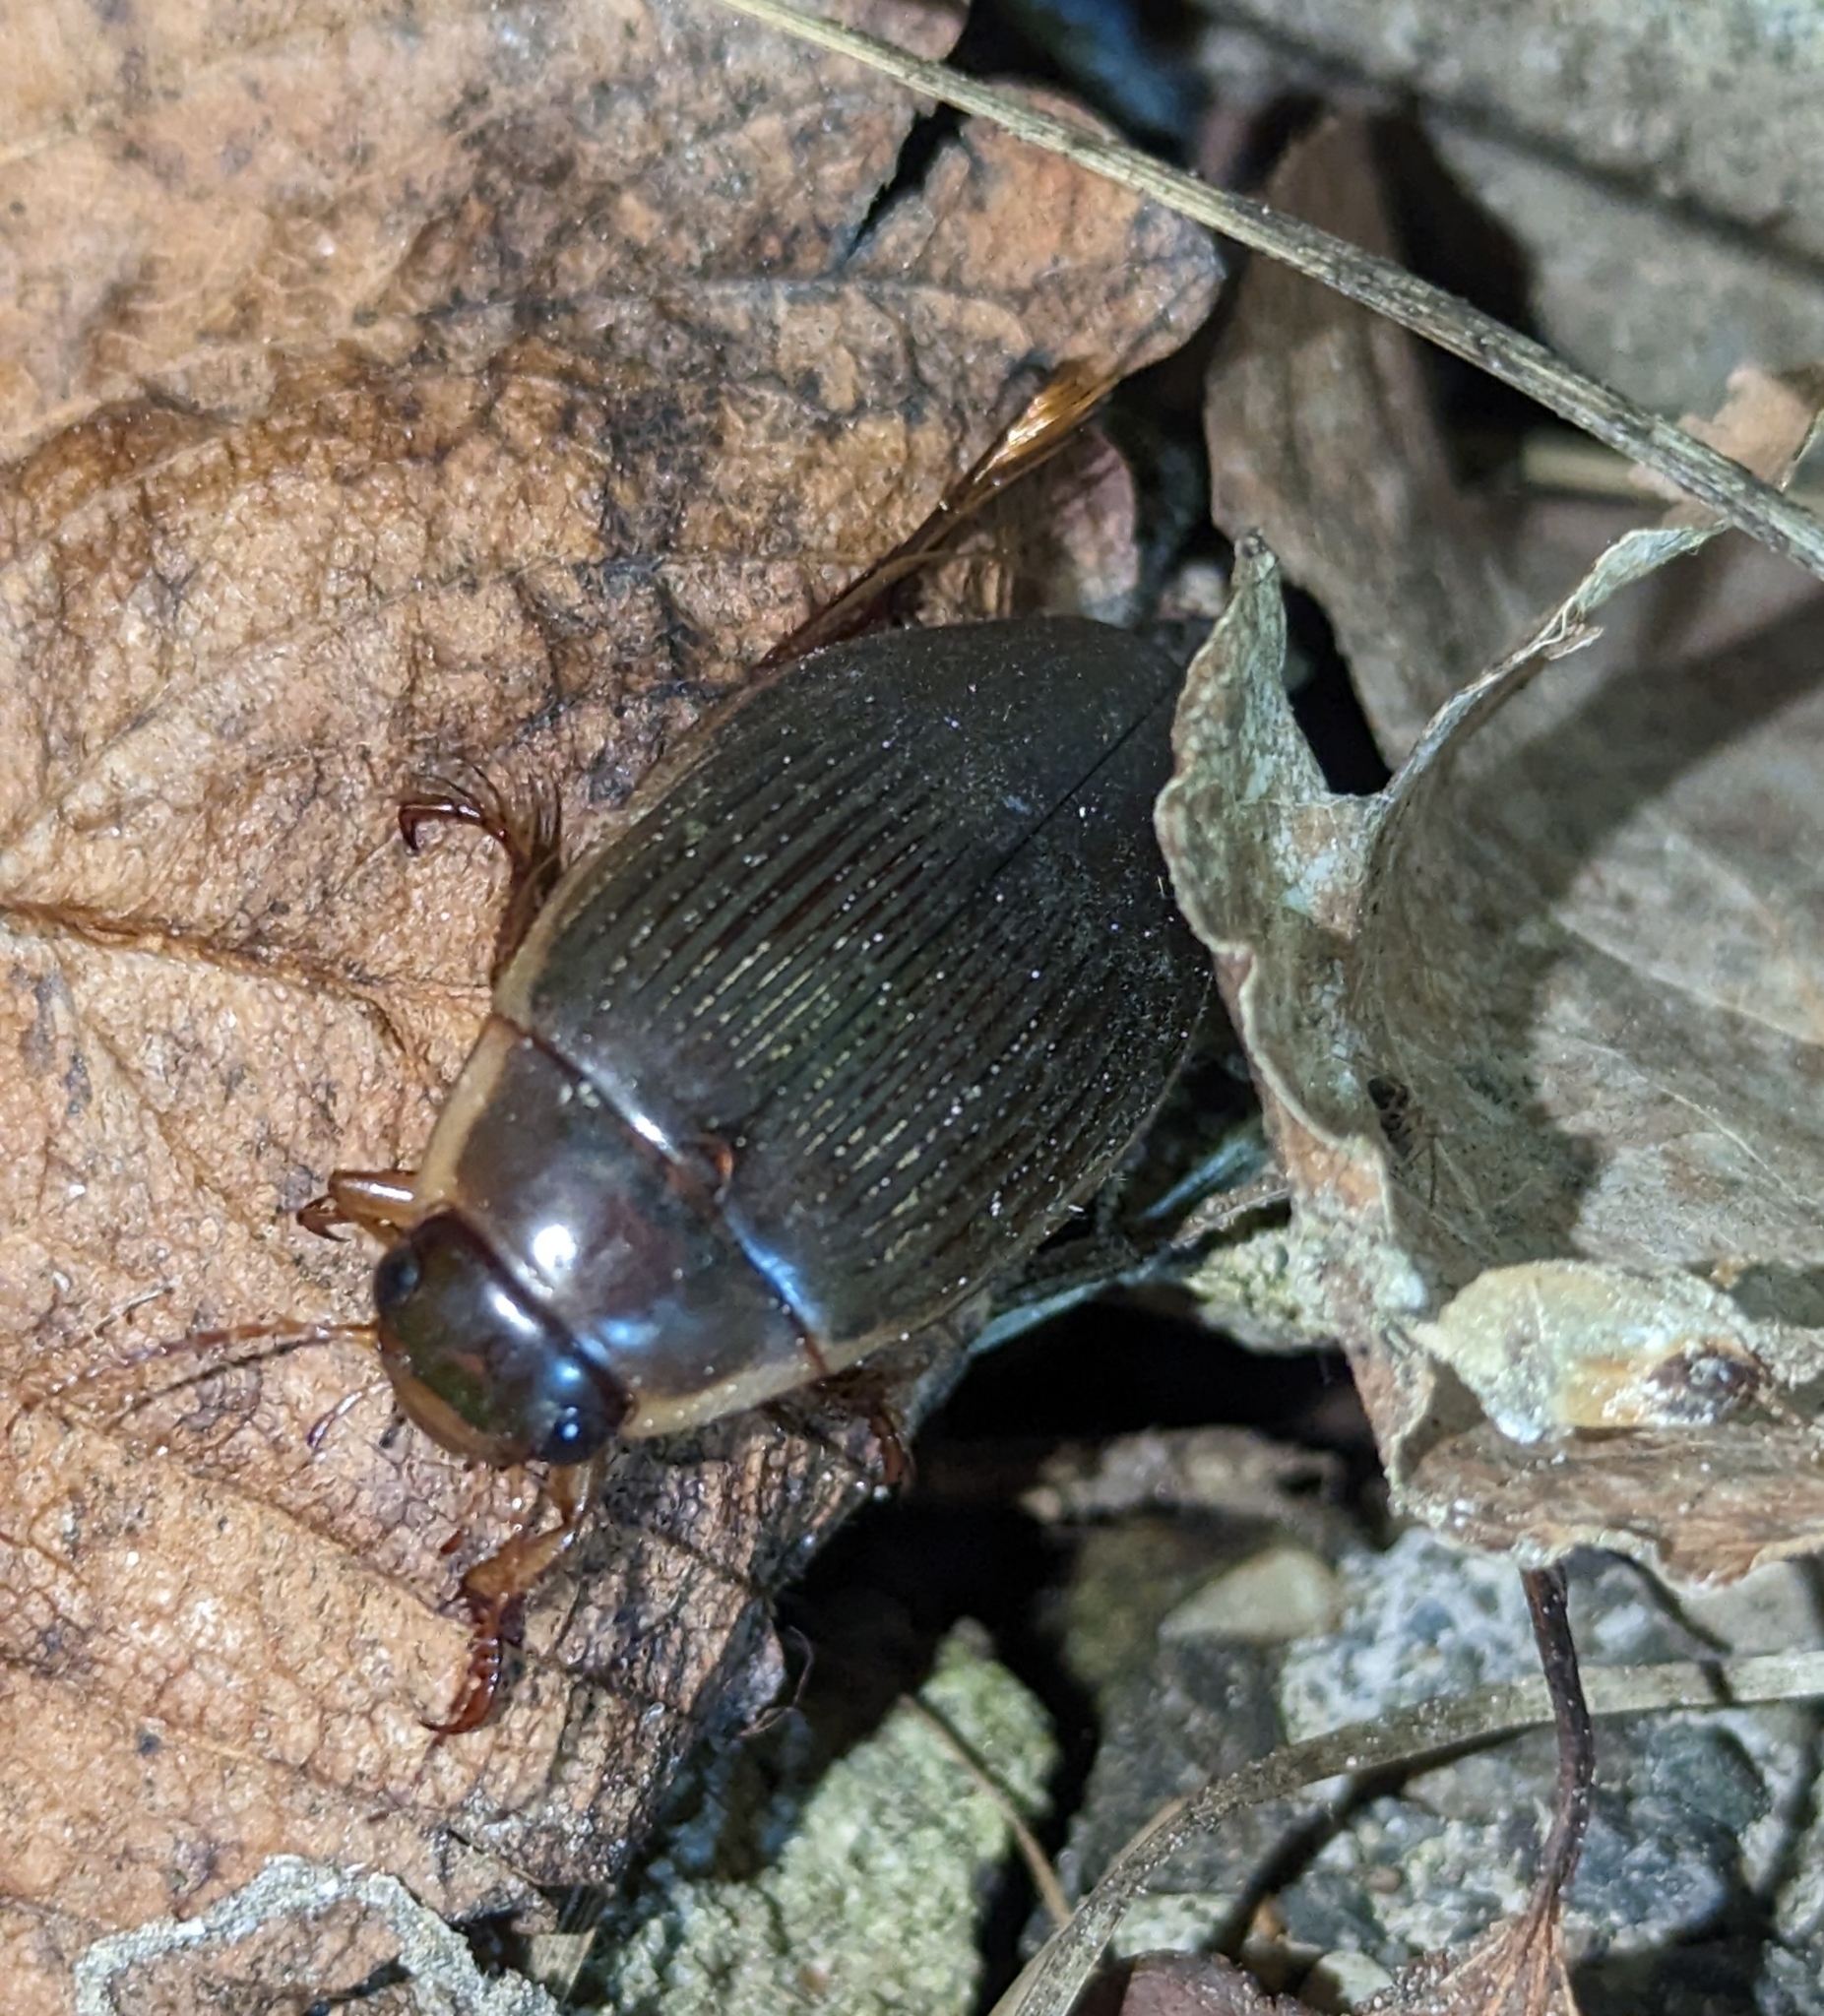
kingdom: Animalia
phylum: Arthropoda
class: Insecta
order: Coleoptera
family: Dytiscidae
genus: Dytiscus
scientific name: Dytiscus
